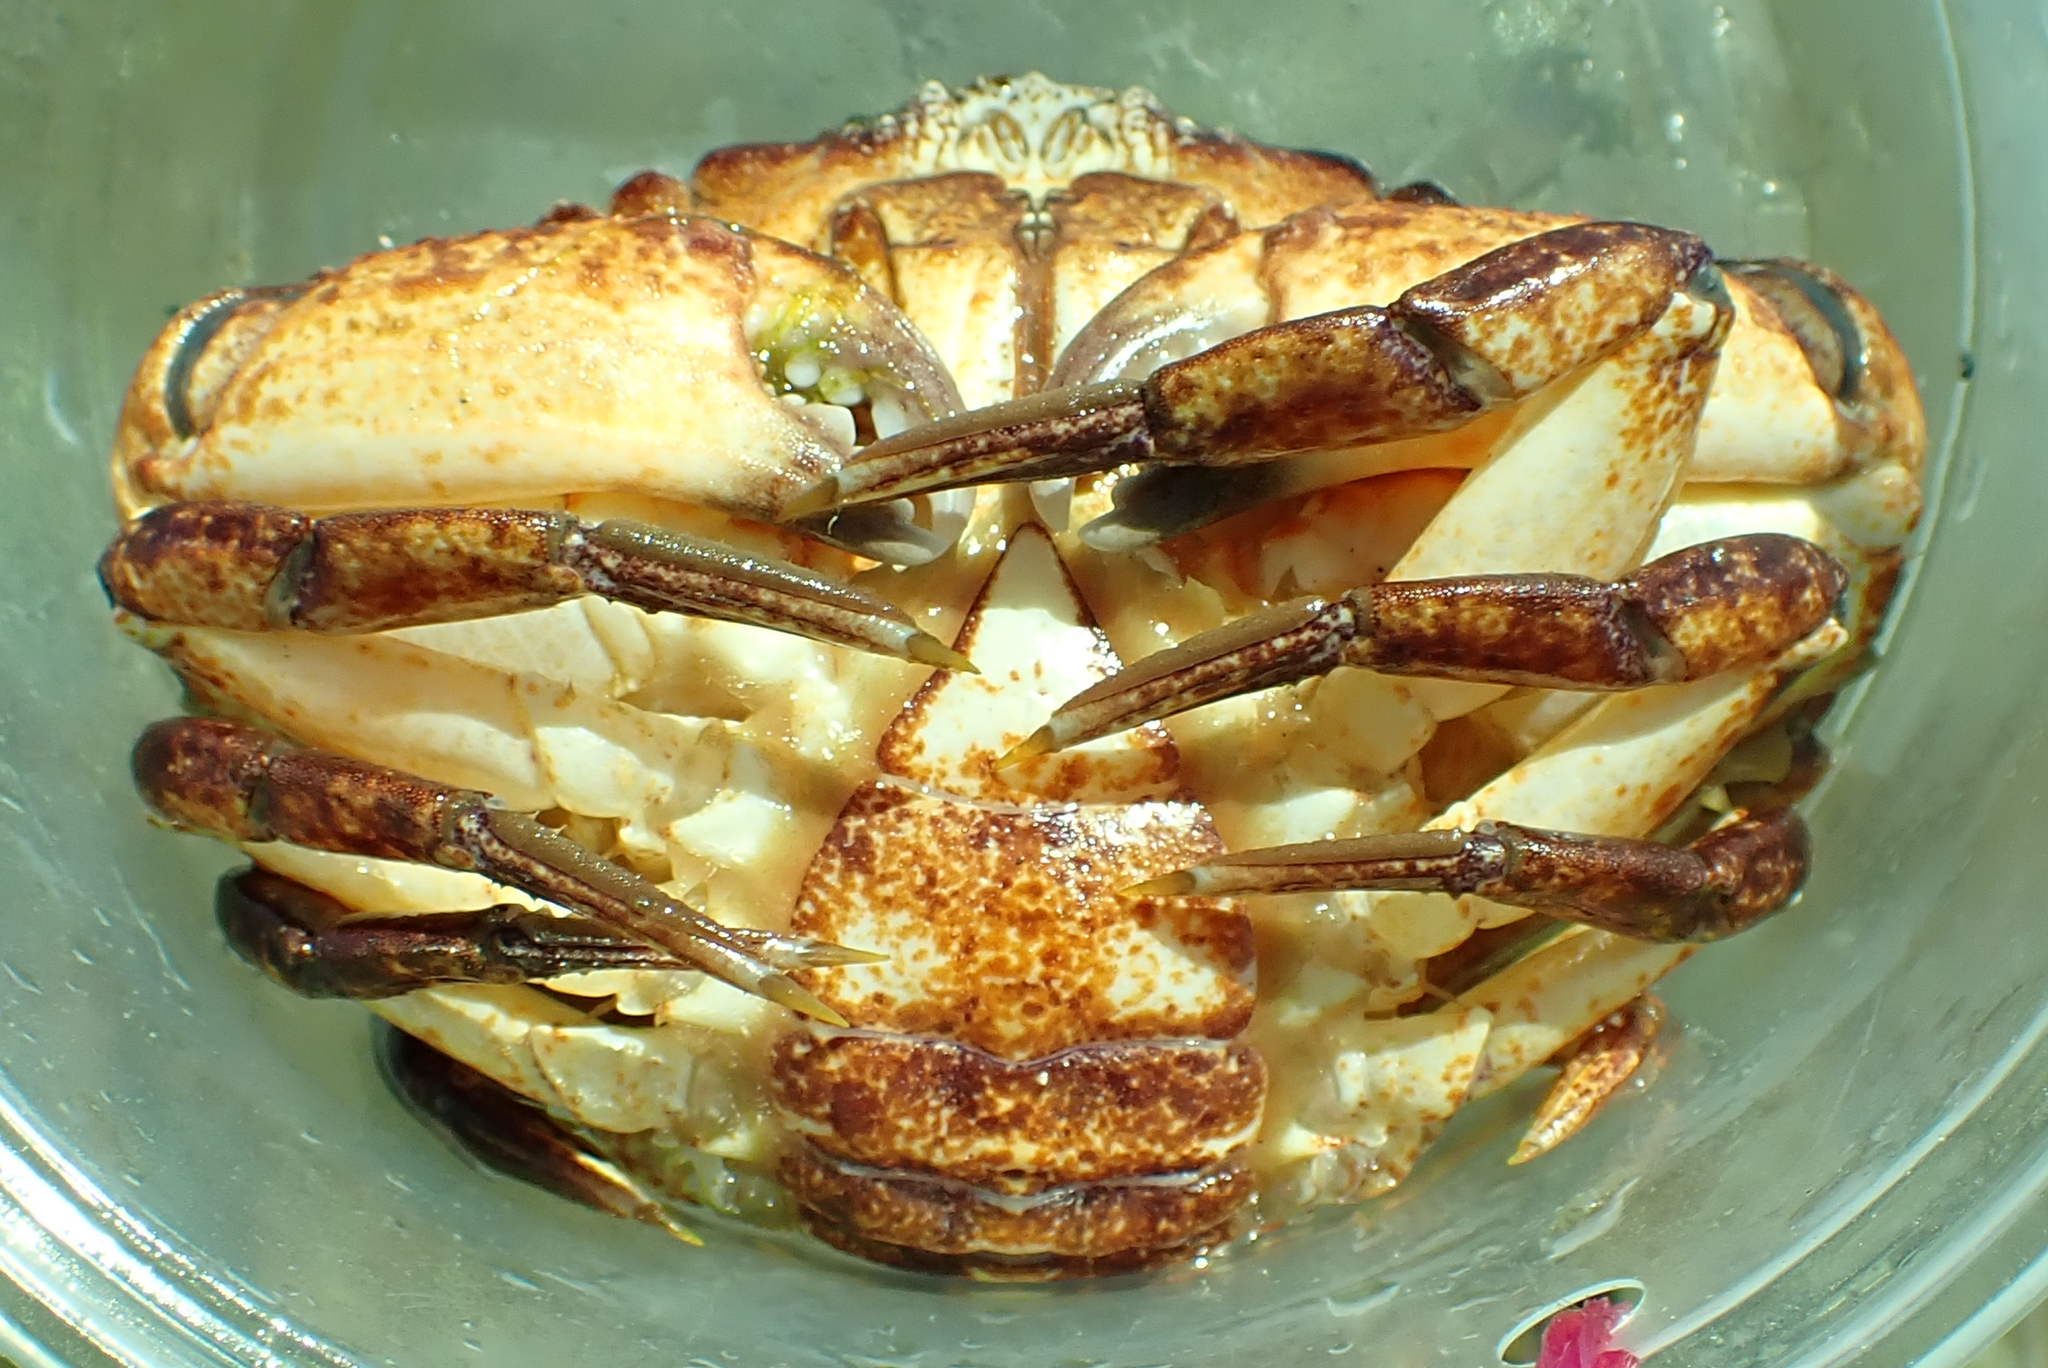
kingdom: Animalia
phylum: Arthropoda
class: Malacostraca
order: Decapoda
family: Cancridae
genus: Cancer
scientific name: Cancer productus
